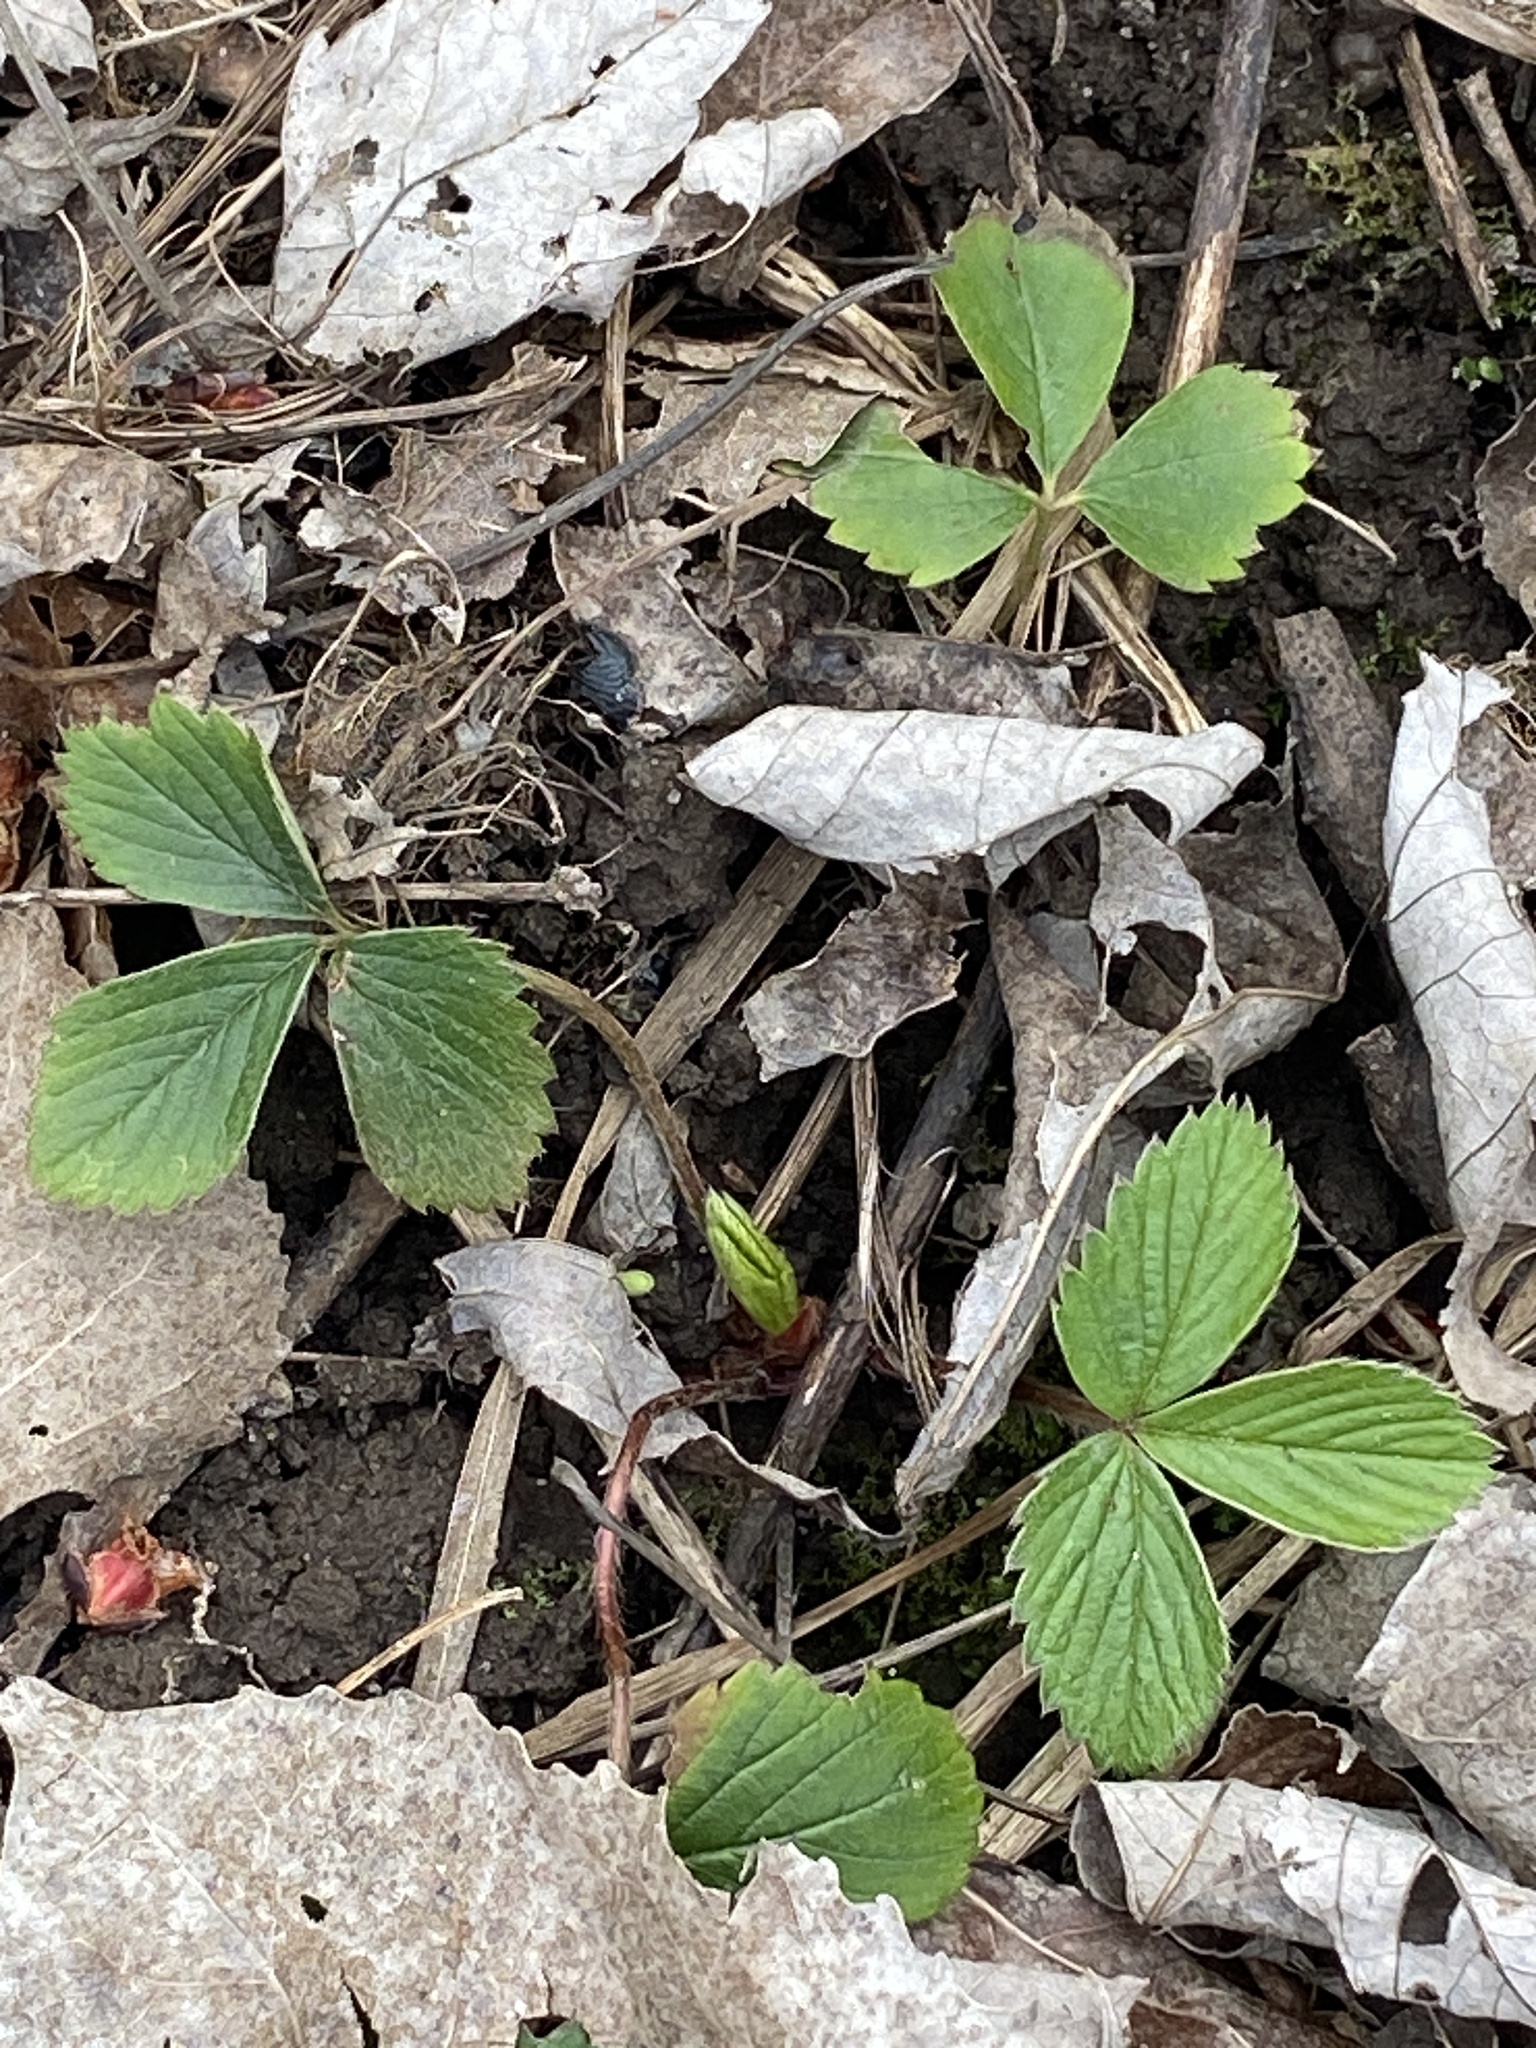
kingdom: Plantae
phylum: Tracheophyta
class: Magnoliopsida
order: Rosales
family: Rosaceae
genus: Fragaria
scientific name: Fragaria virginiana
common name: Thickleaved wild strawberry
